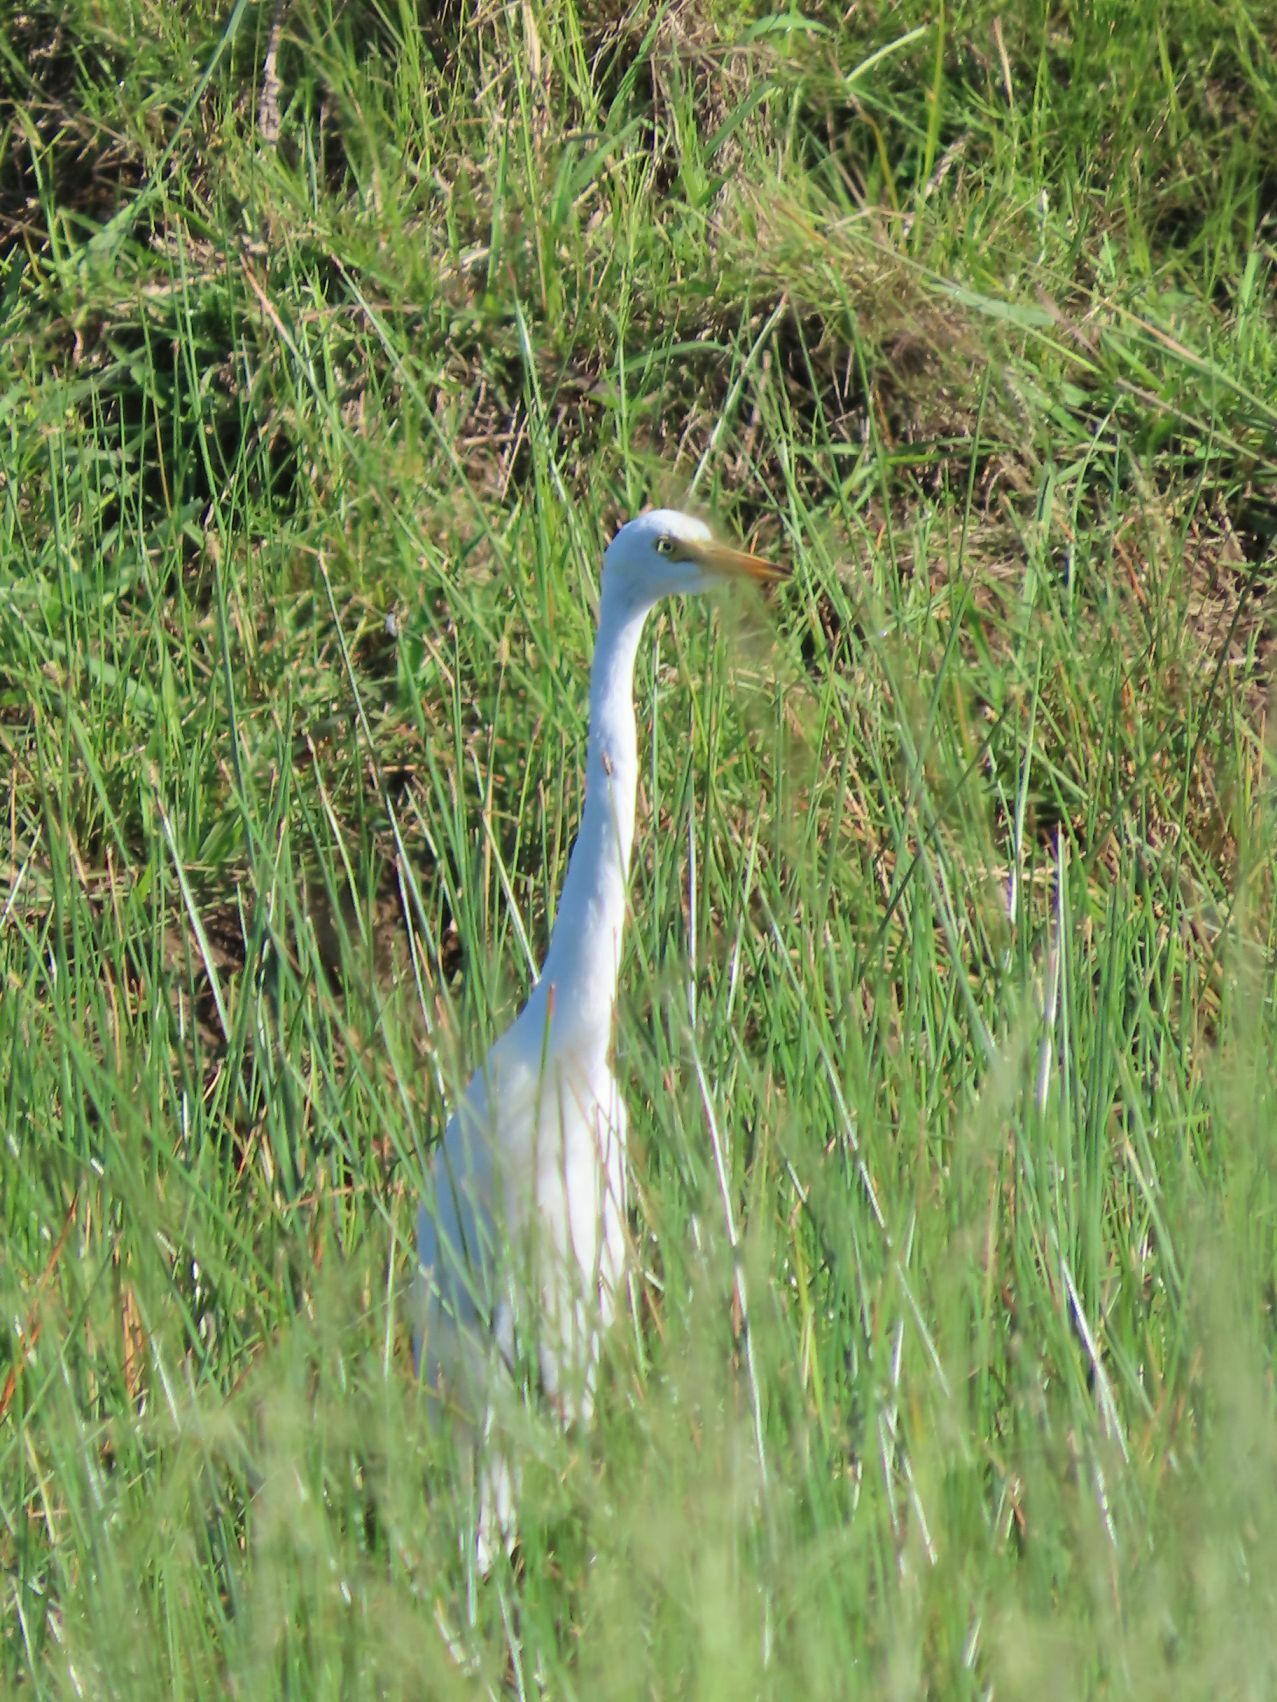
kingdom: Animalia
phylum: Chordata
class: Aves
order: Pelecaniformes
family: Ardeidae
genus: Egretta
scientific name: Egretta intermedia
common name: Intermediate egret
